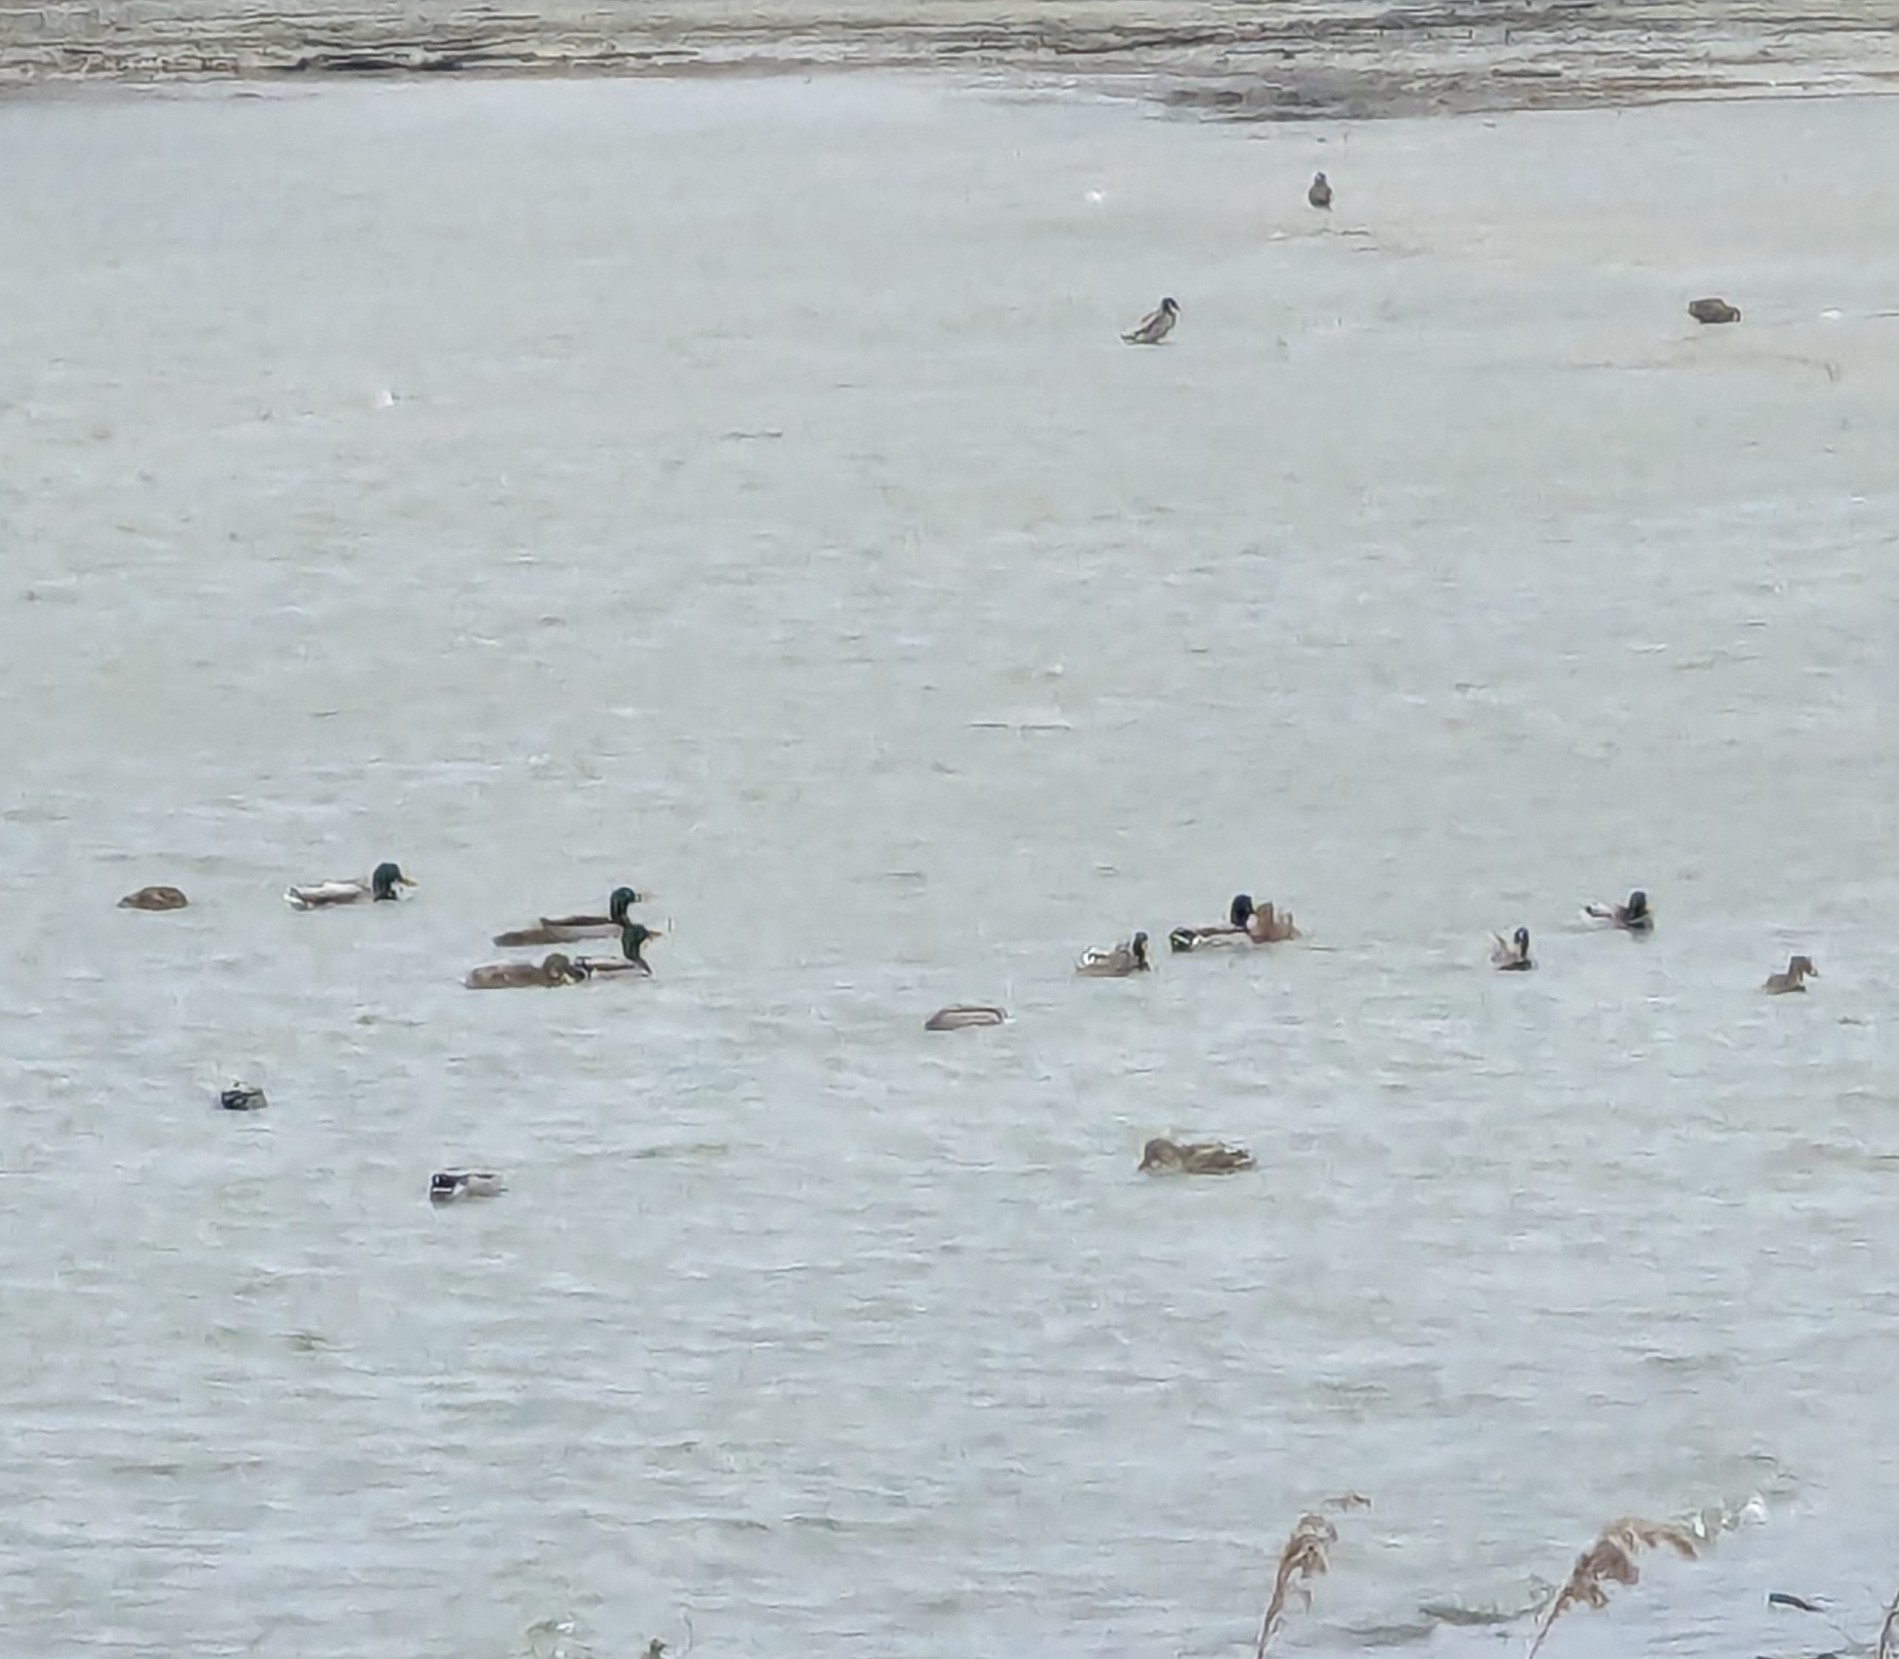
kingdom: Animalia
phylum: Chordata
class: Aves
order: Anseriformes
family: Anatidae
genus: Anas
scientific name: Anas platyrhynchos
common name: Mallard
